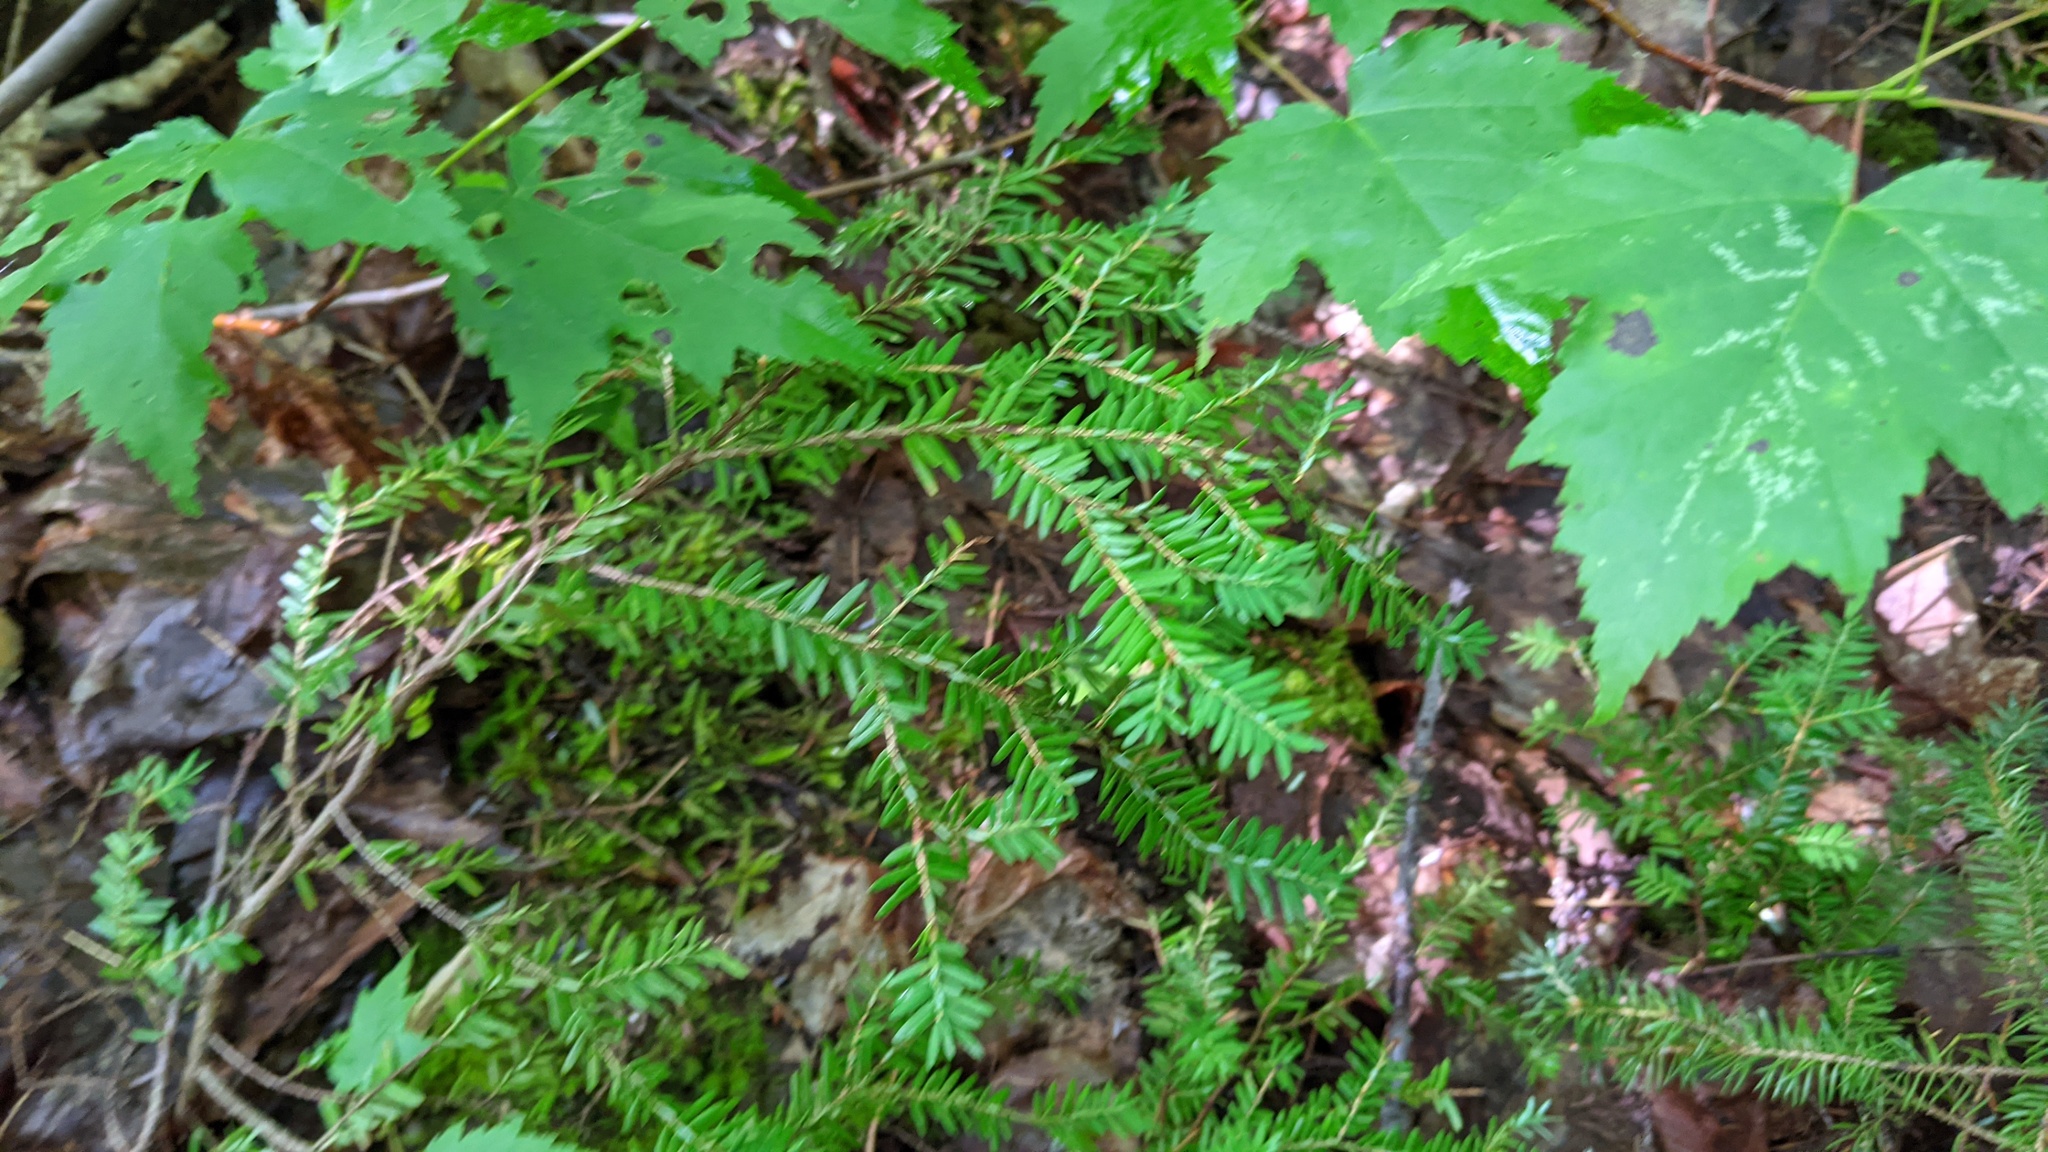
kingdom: Plantae
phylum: Tracheophyta
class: Pinopsida
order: Pinales
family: Pinaceae
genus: Tsuga
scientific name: Tsuga canadensis
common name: Eastern hemlock
